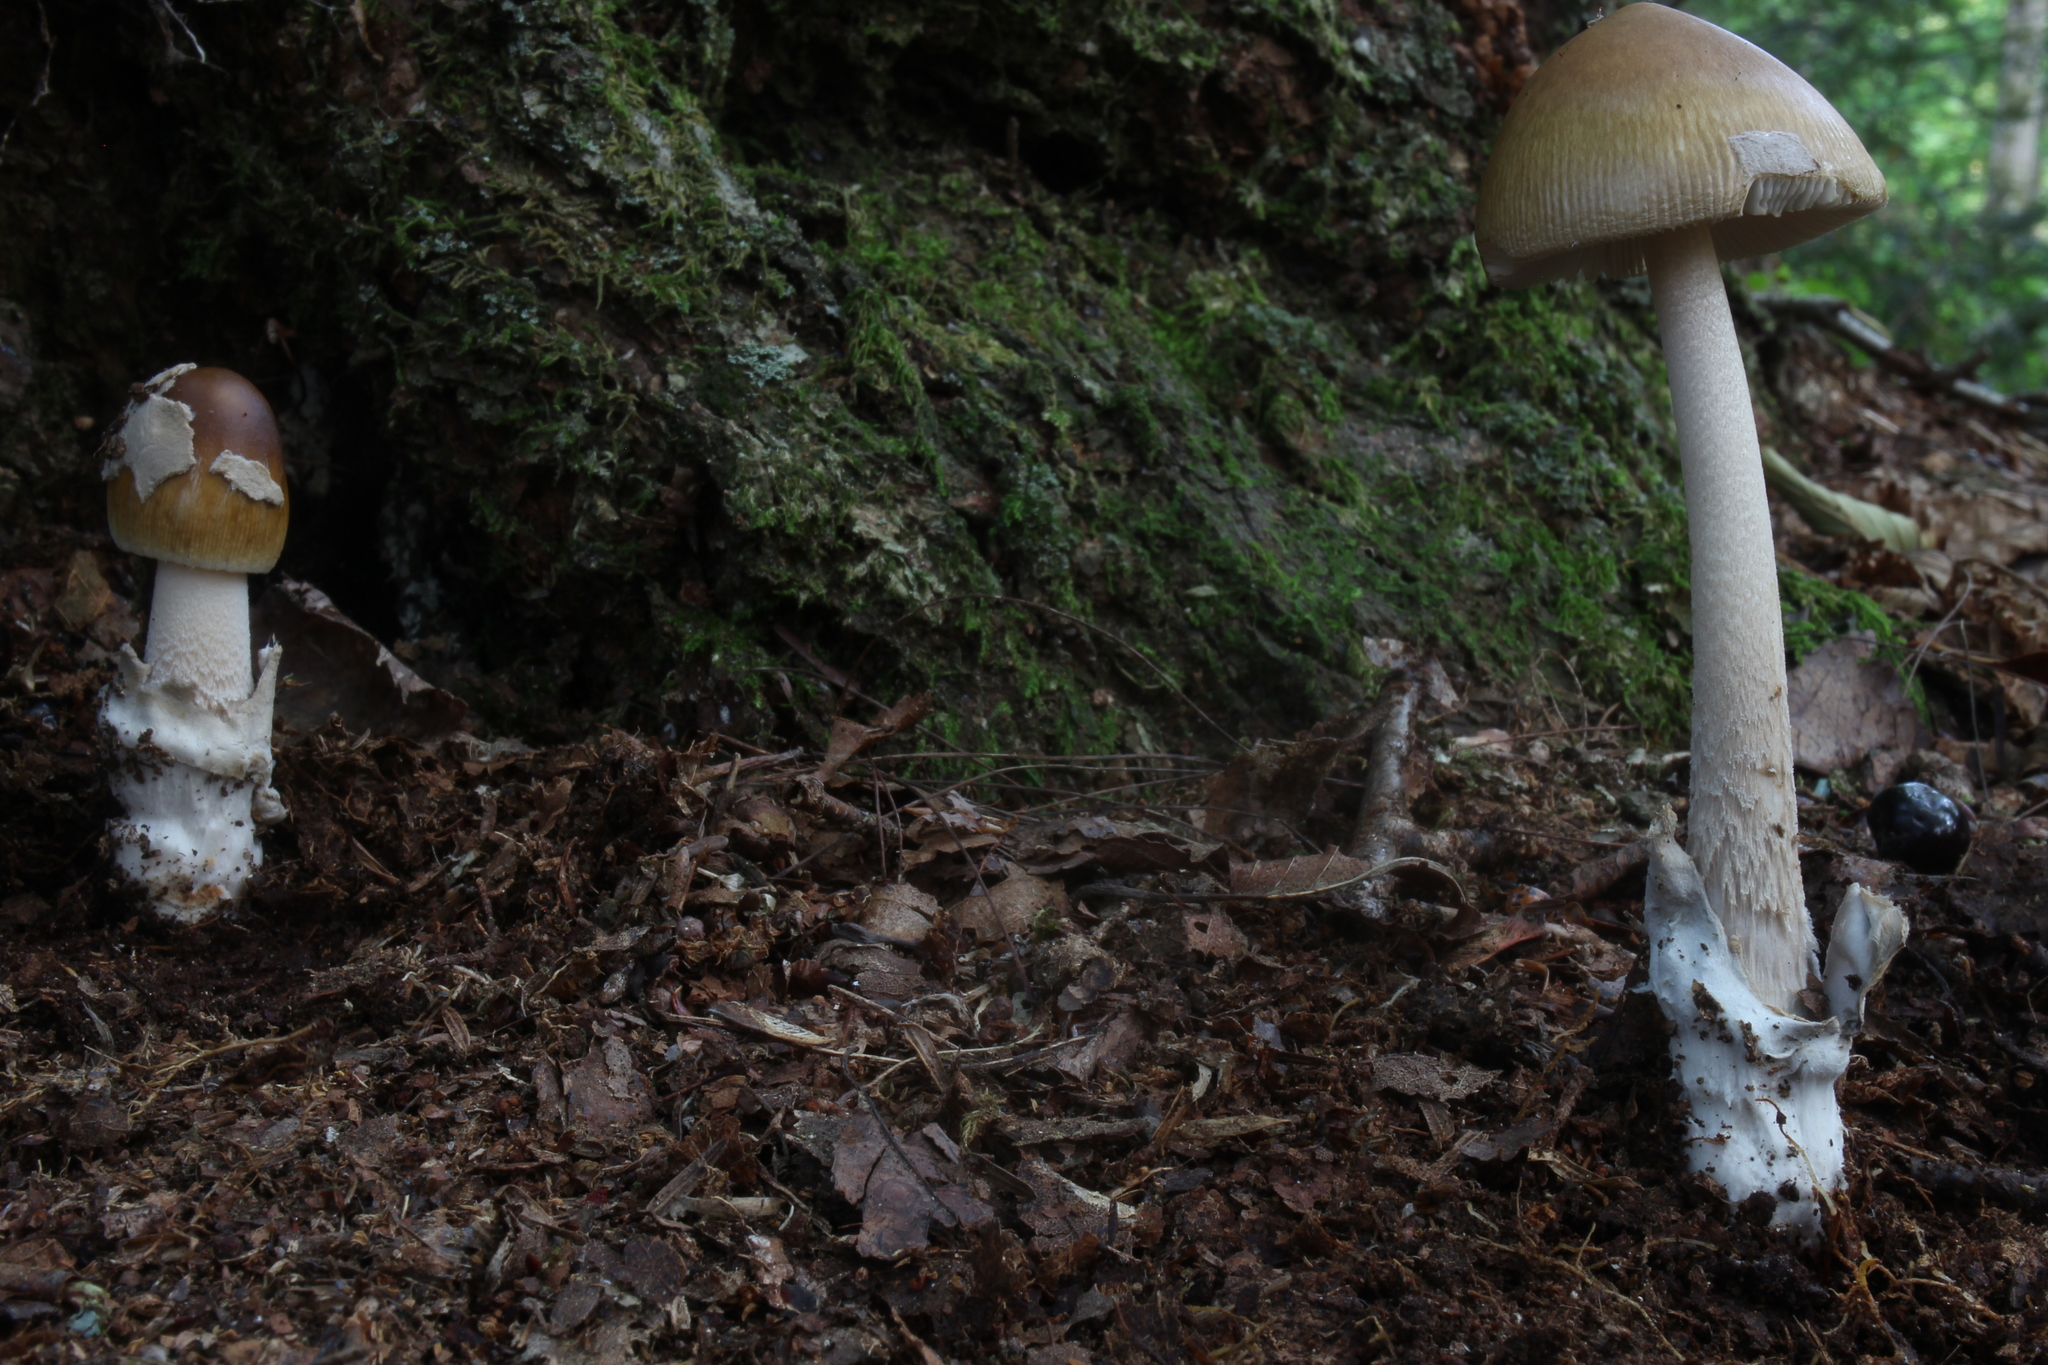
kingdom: Fungi
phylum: Basidiomycota
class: Agaricomycetes
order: Agaricales
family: Amanitaceae
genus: Amanita
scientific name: Amanita sinicoflava
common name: Mandarin yellow ringless amanita
